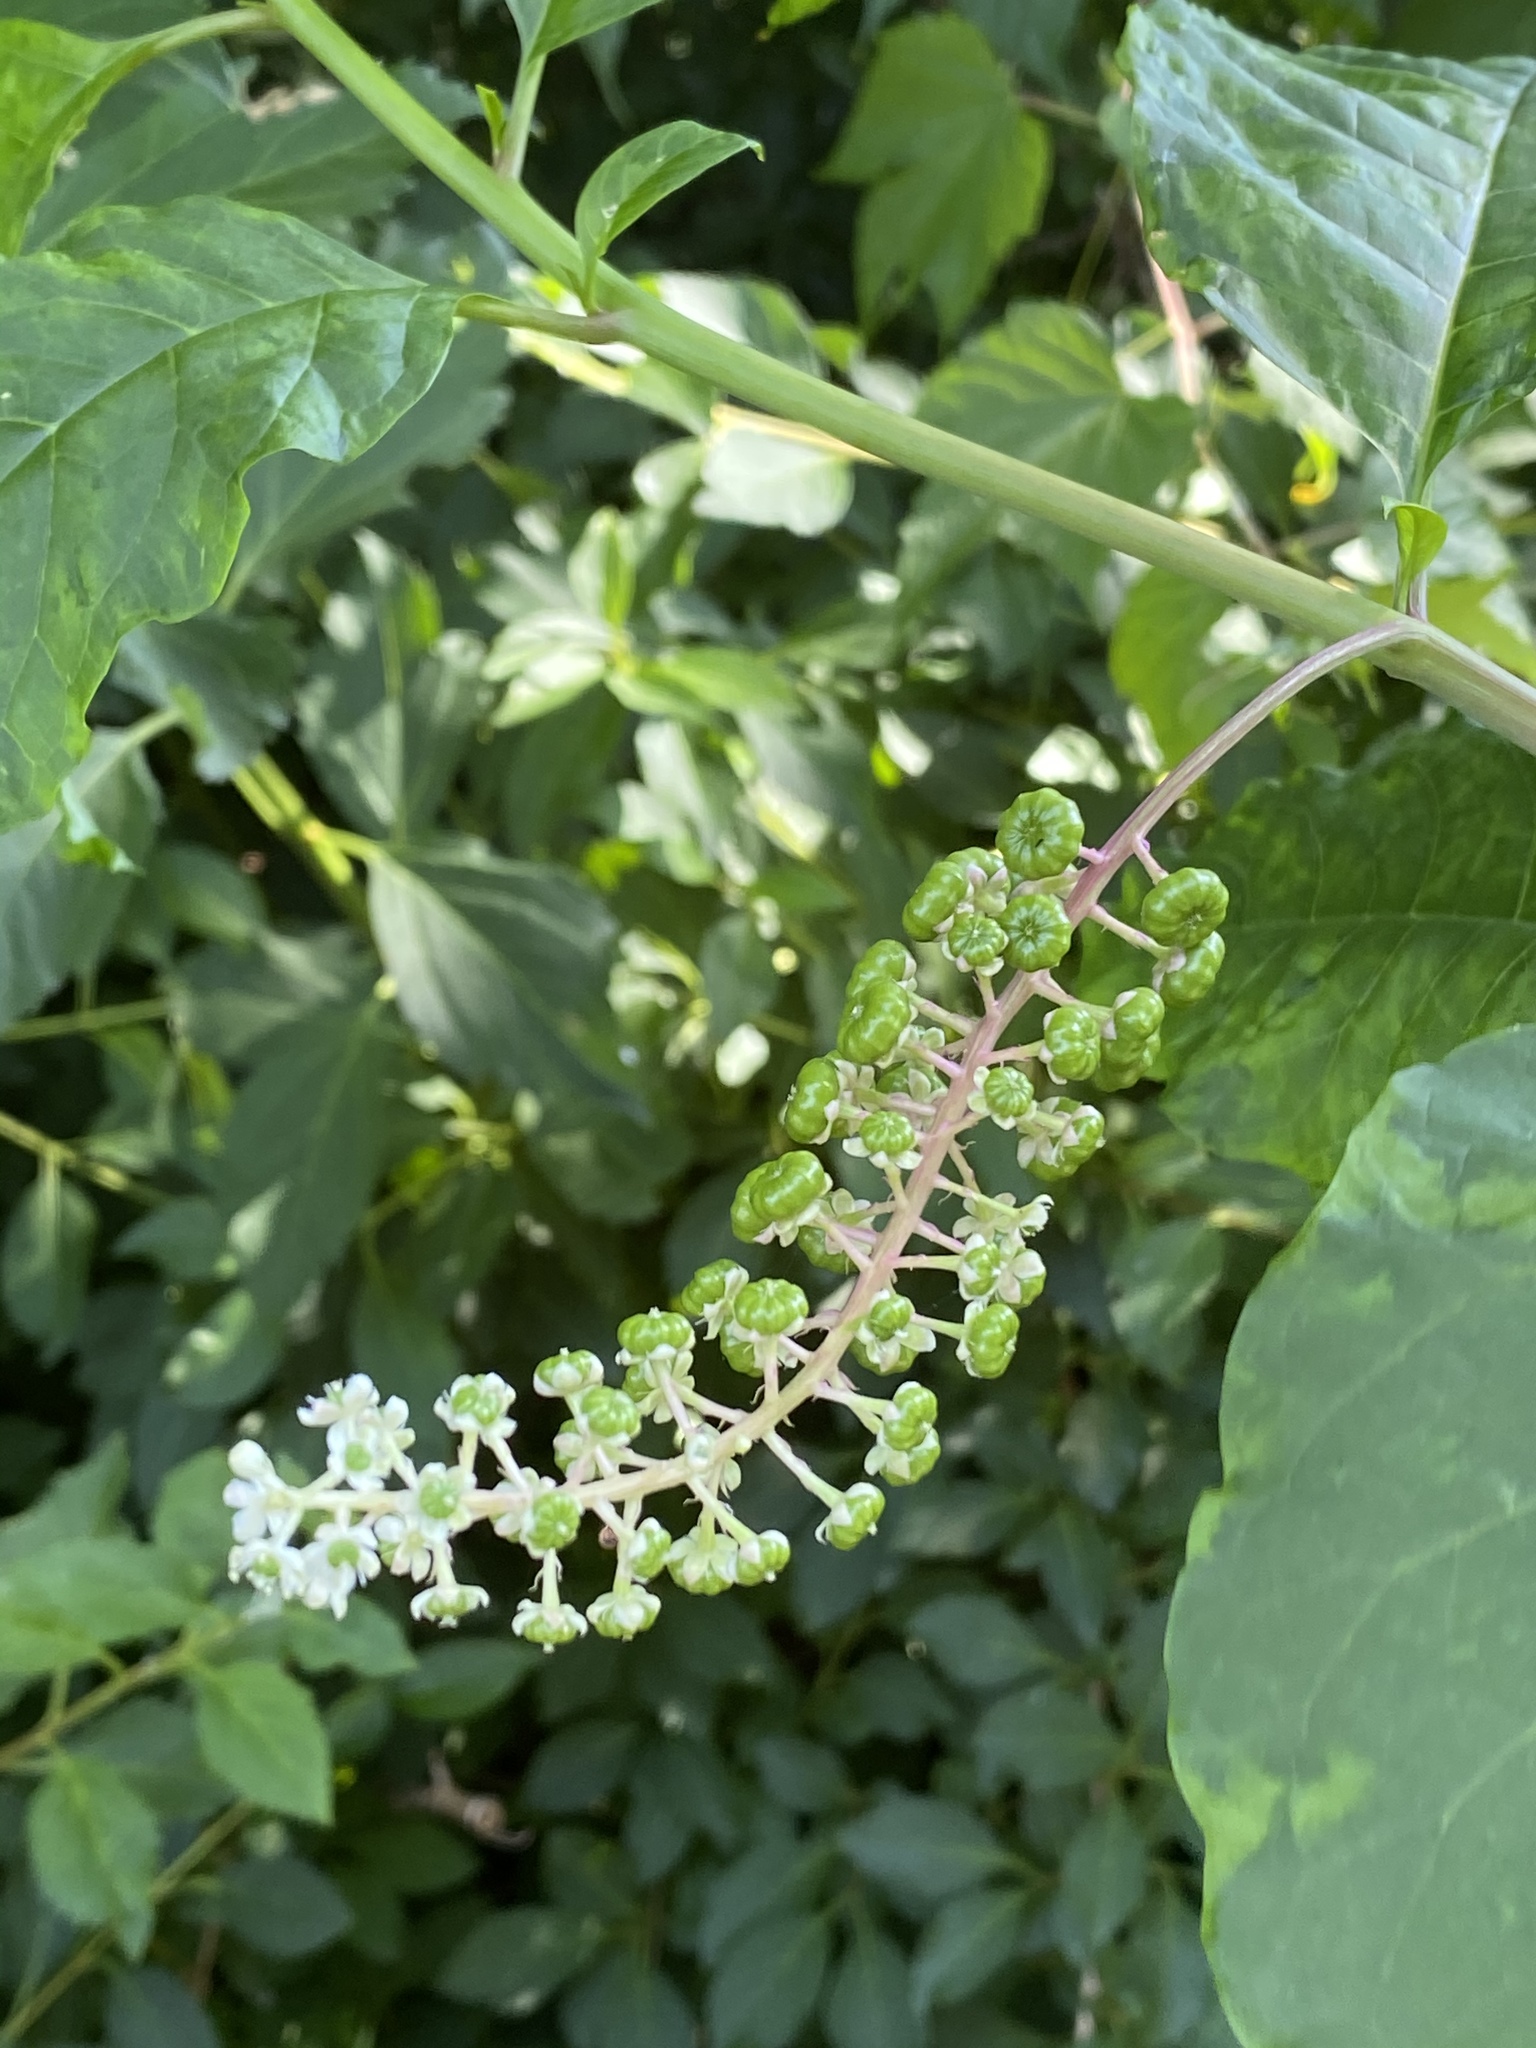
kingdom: Plantae
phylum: Tracheophyta
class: Magnoliopsida
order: Caryophyllales
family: Phytolaccaceae
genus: Phytolacca
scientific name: Phytolacca americana
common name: American pokeweed
